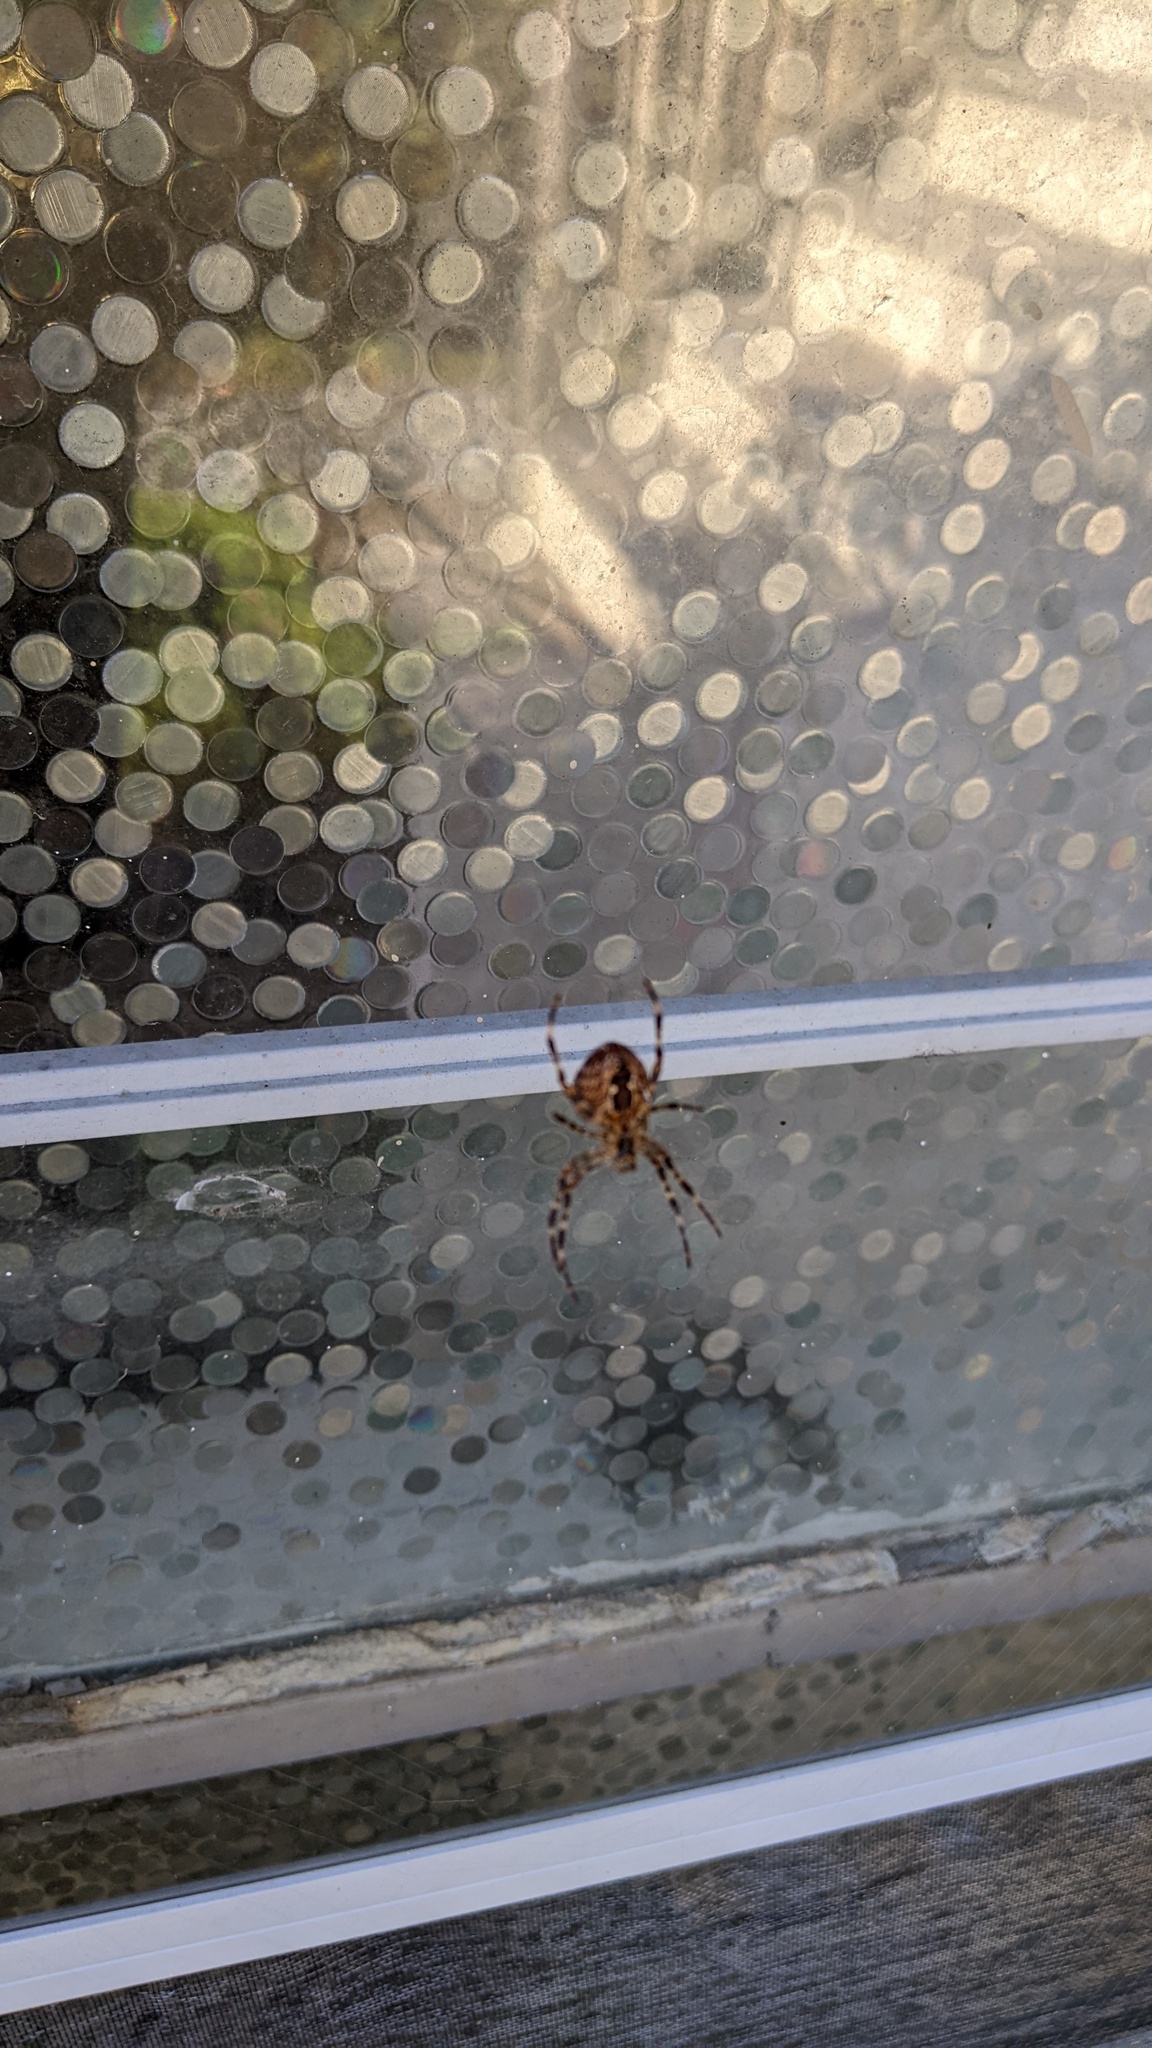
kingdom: Animalia
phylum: Arthropoda
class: Arachnida
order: Araneae
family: Araneidae
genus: Araneus
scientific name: Araneus diadematus
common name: Cross orbweaver
